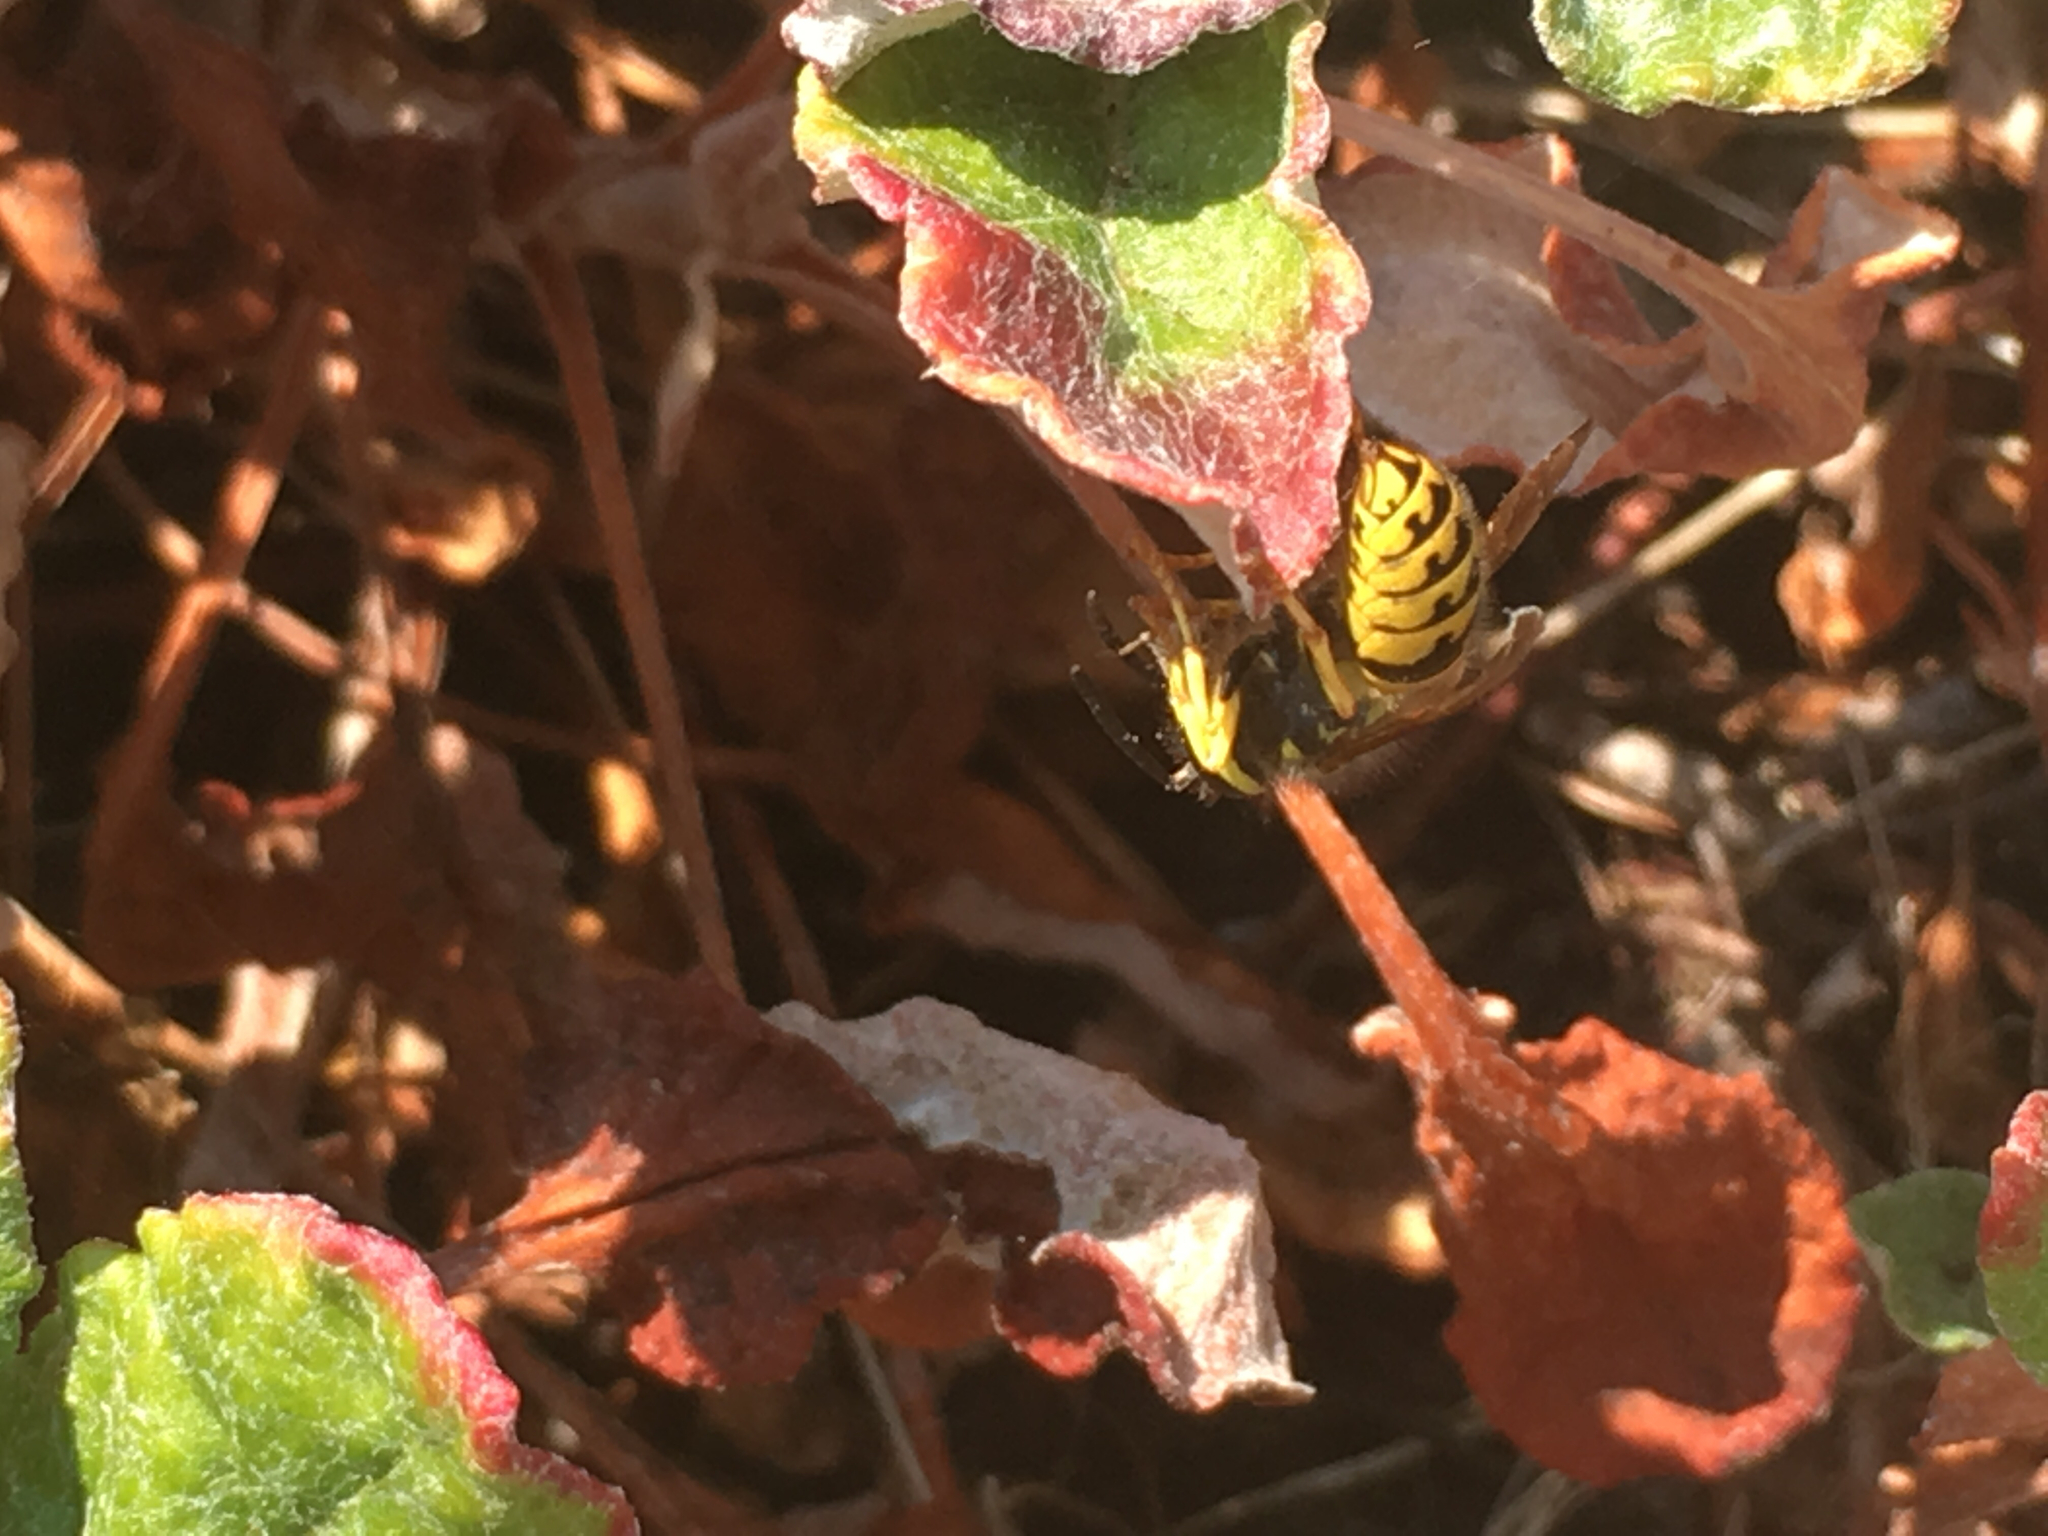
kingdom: Animalia
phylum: Arthropoda
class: Insecta
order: Hymenoptera
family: Vespidae
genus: Vespula
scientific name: Vespula pensylvanica
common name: Western yellowjacket
